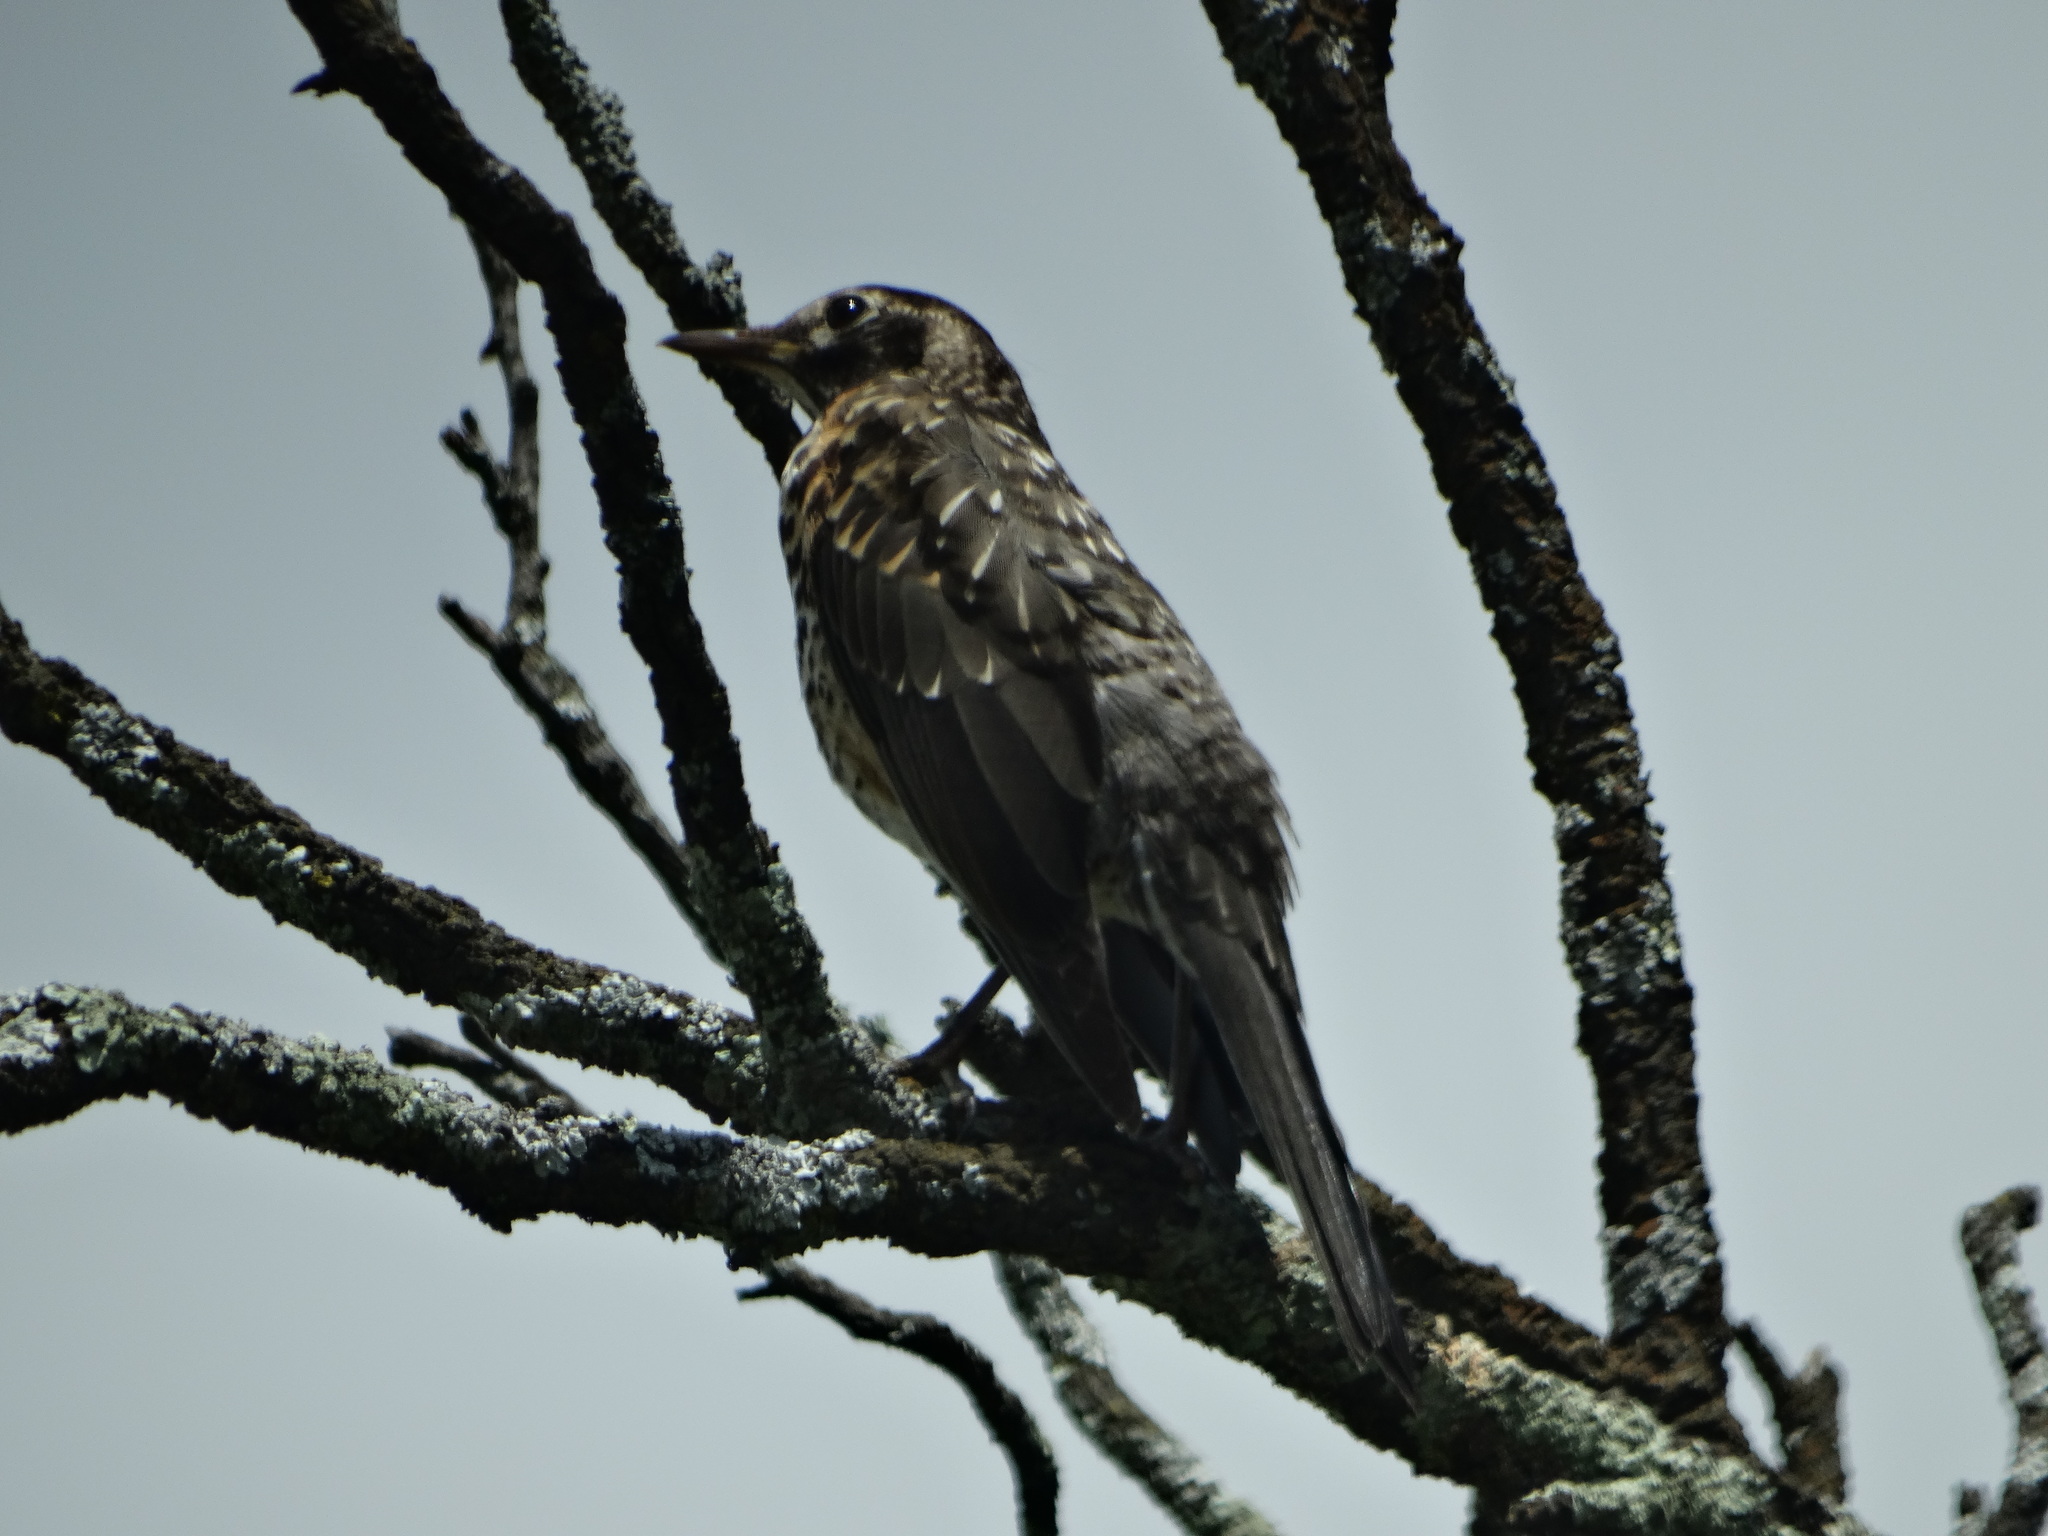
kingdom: Animalia
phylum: Chordata
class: Aves
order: Passeriformes
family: Turdidae
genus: Turdus
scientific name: Turdus migratorius
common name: American robin
